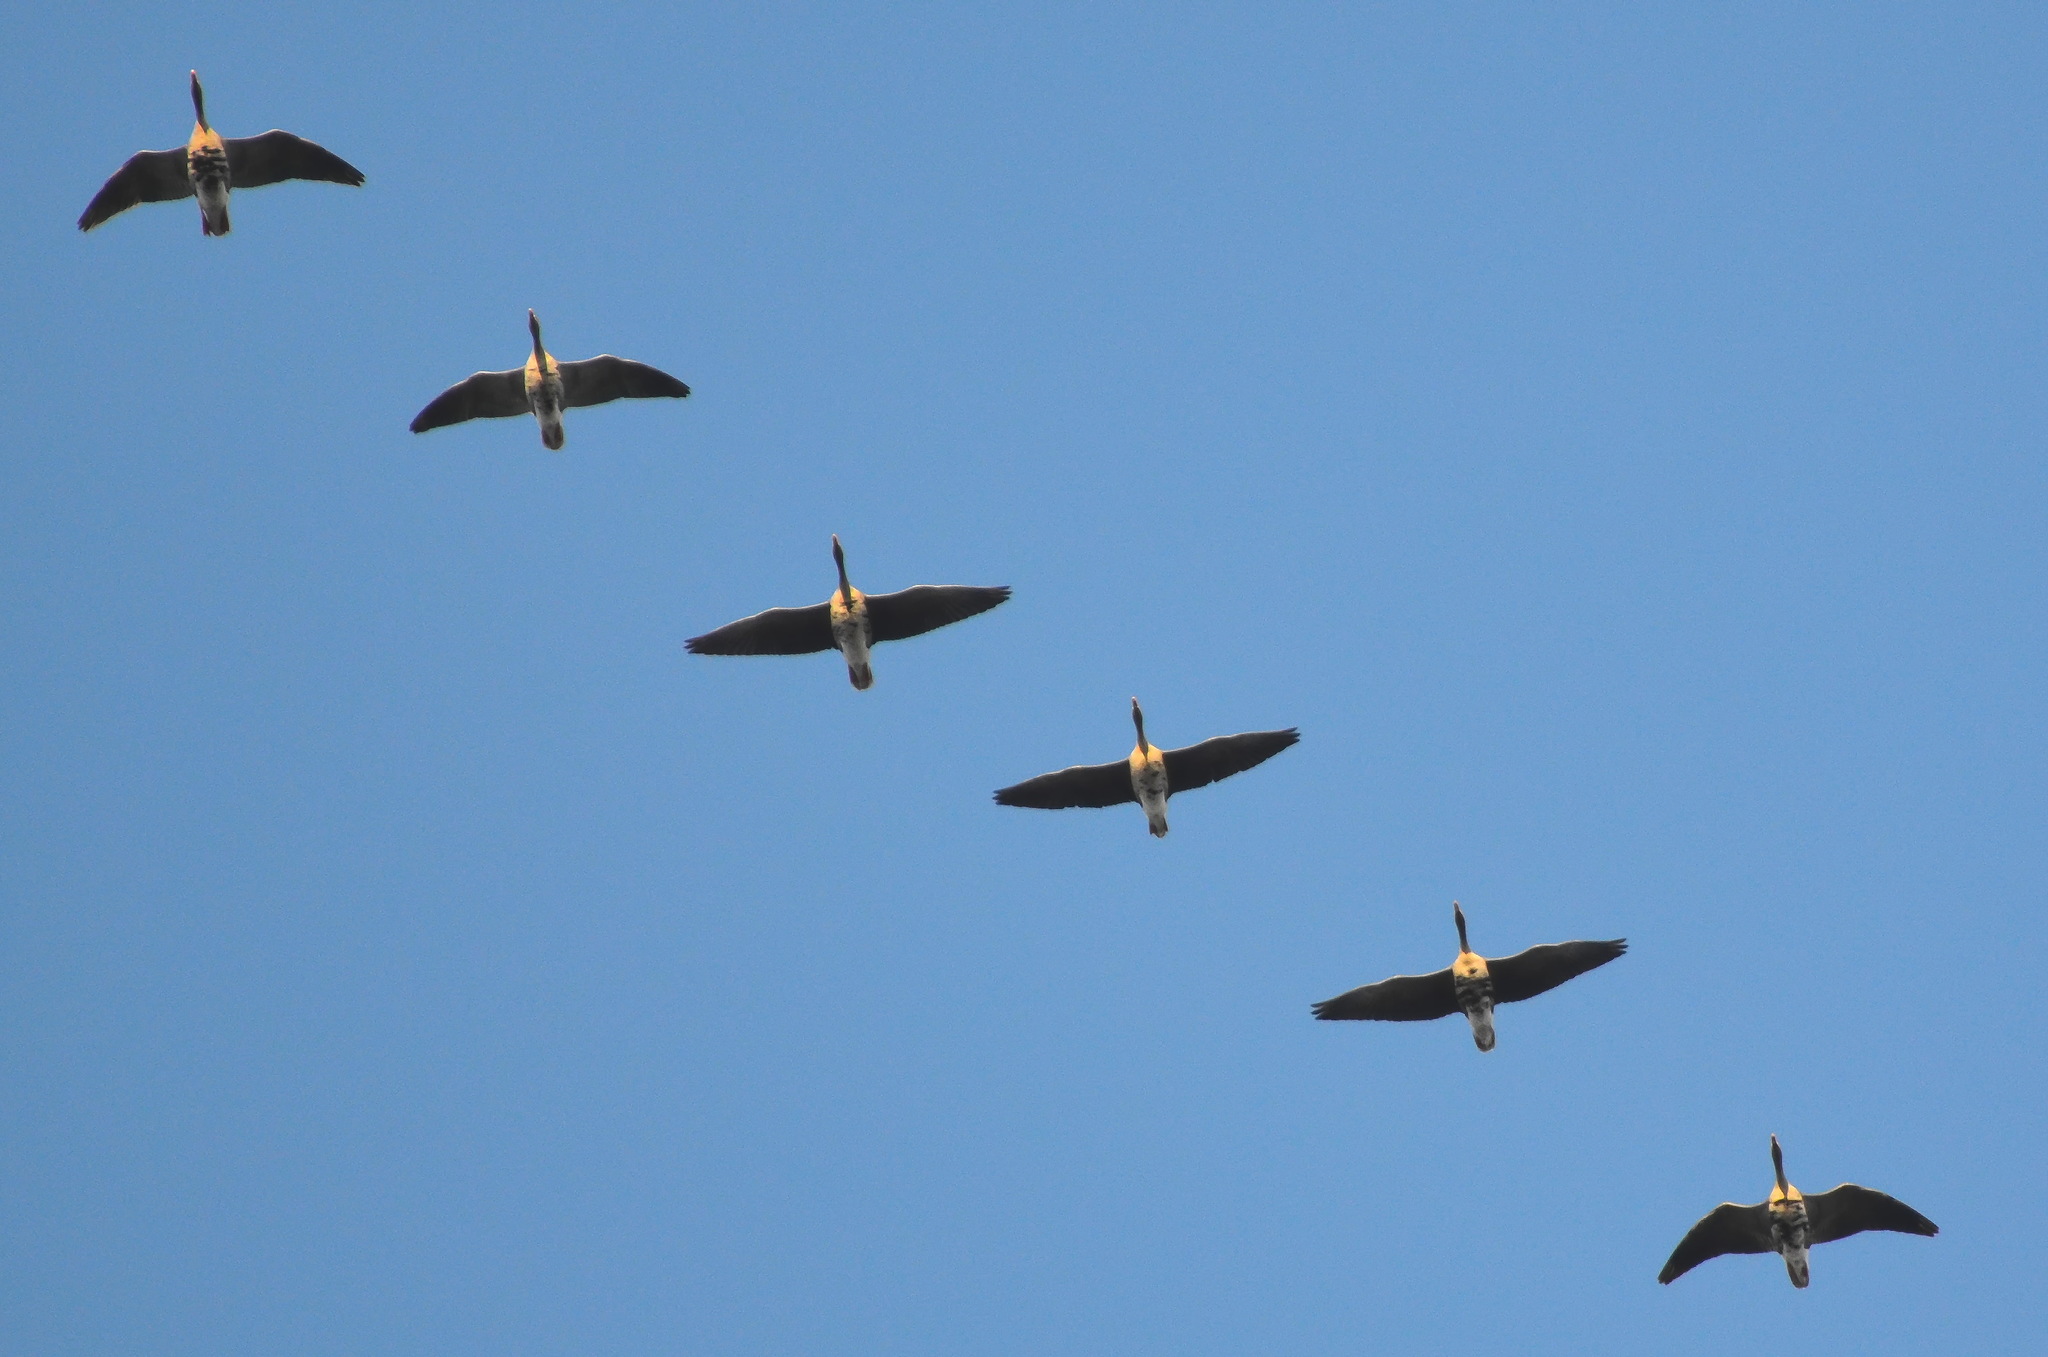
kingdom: Animalia
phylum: Chordata
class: Aves
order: Anseriformes
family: Anatidae
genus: Anser
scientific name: Anser albifrons
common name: Greater white-fronted goose
